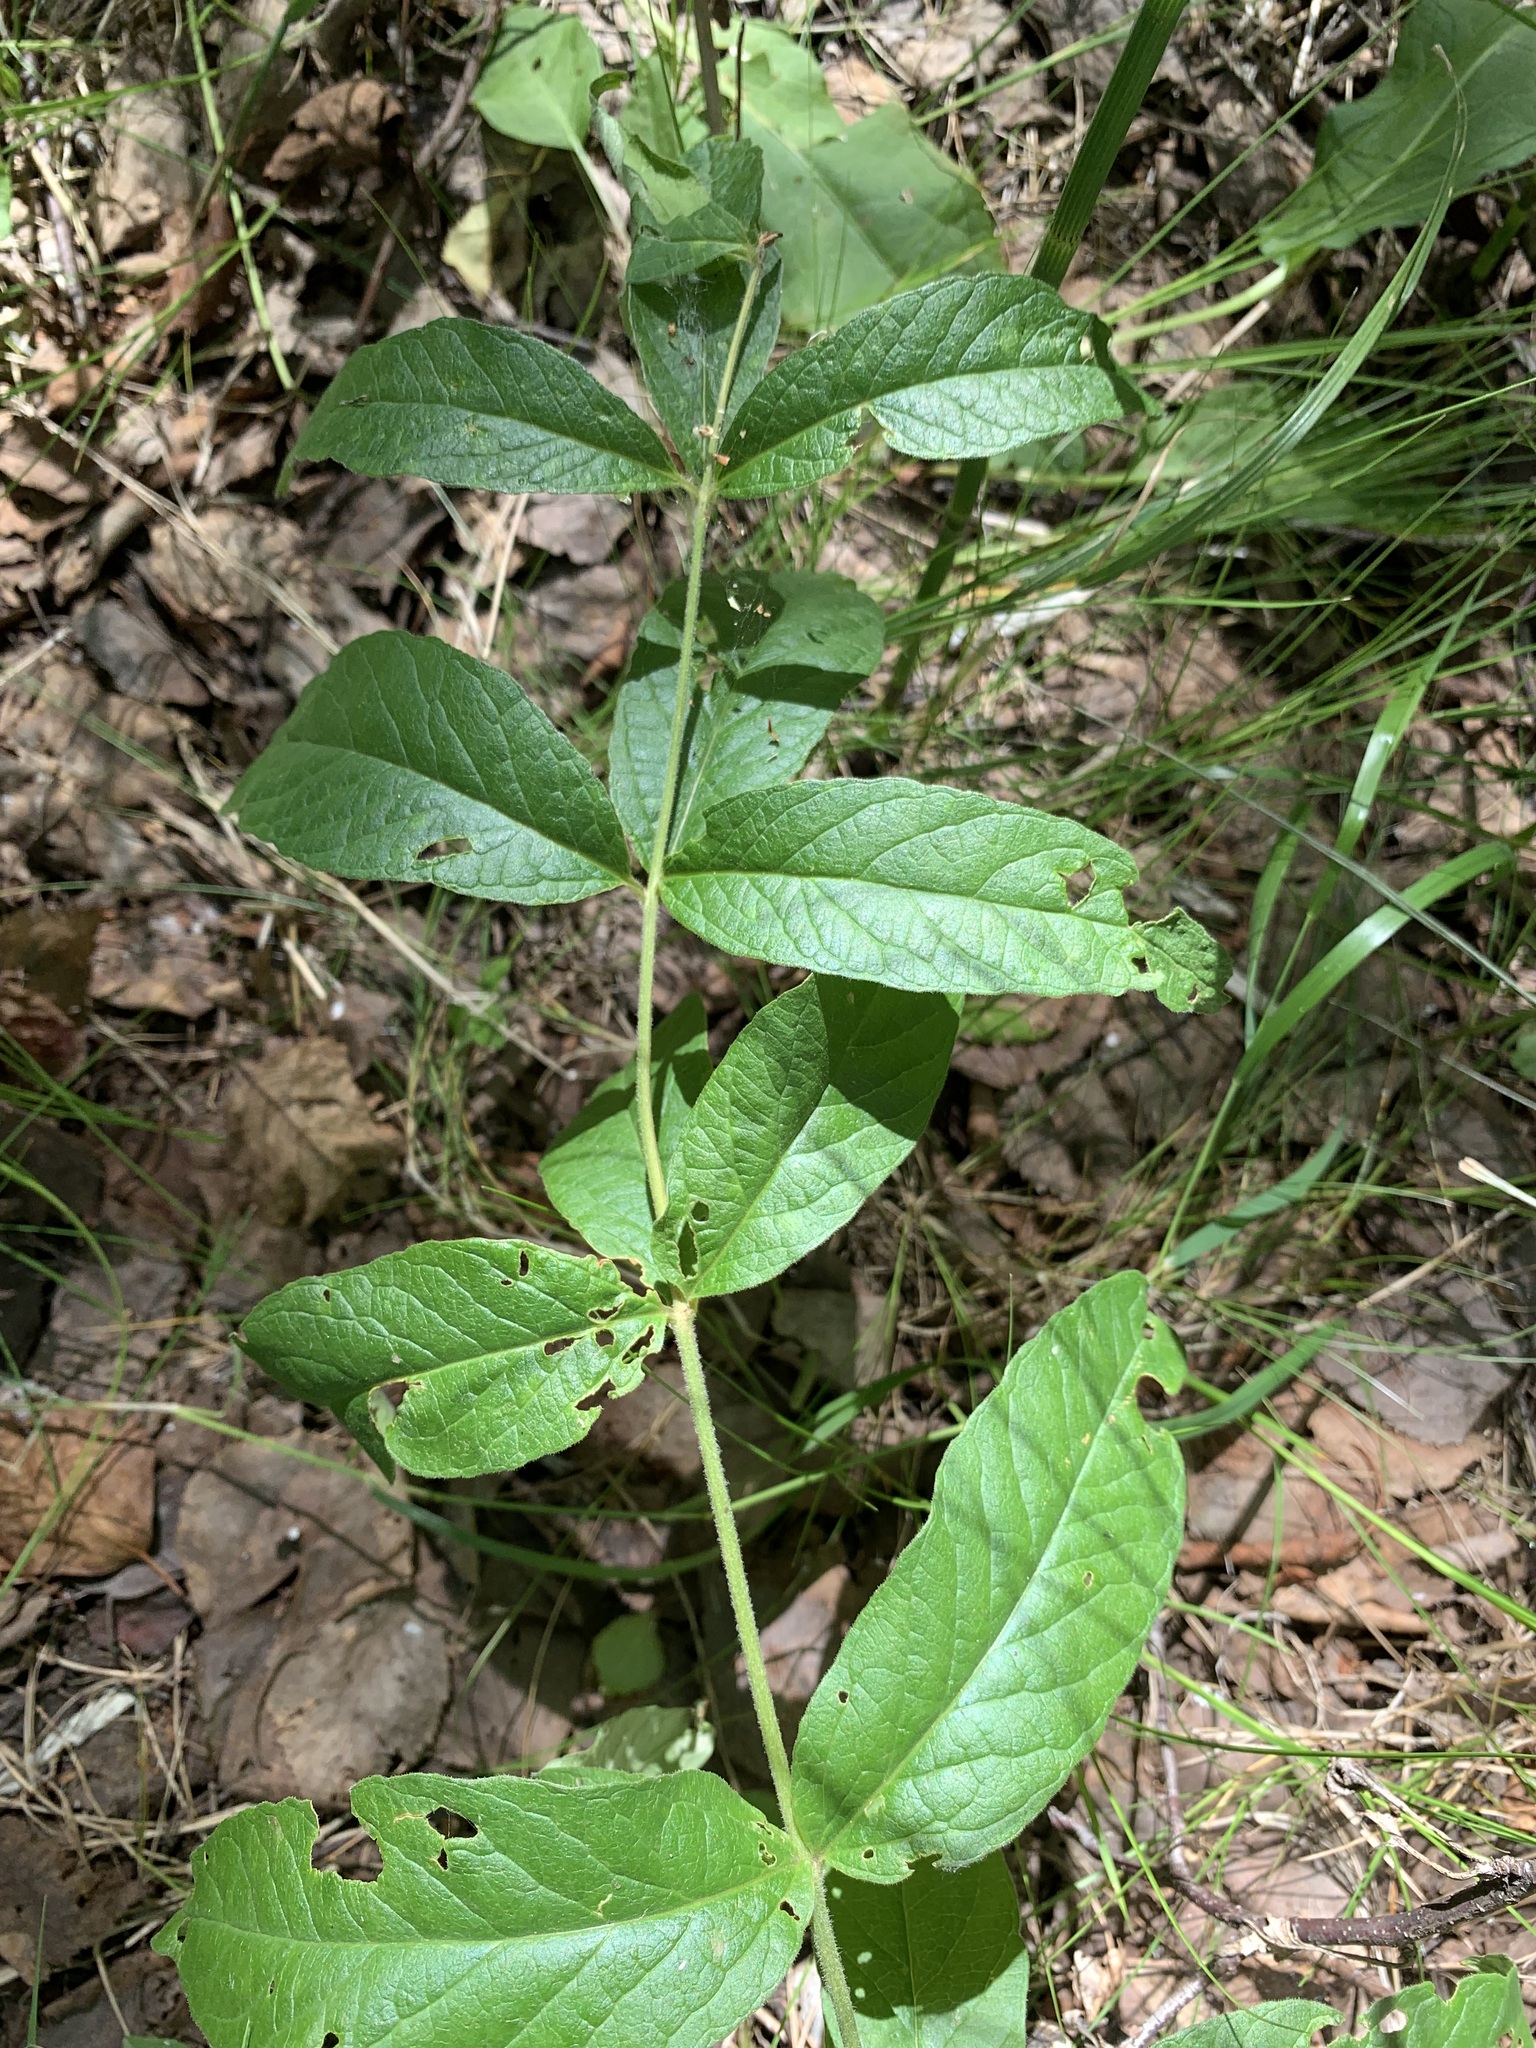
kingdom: Plantae
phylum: Tracheophyta
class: Magnoliopsida
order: Ericales
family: Primulaceae
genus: Lysimachia
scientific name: Lysimachia vulgaris
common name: Yellow loosestrife
